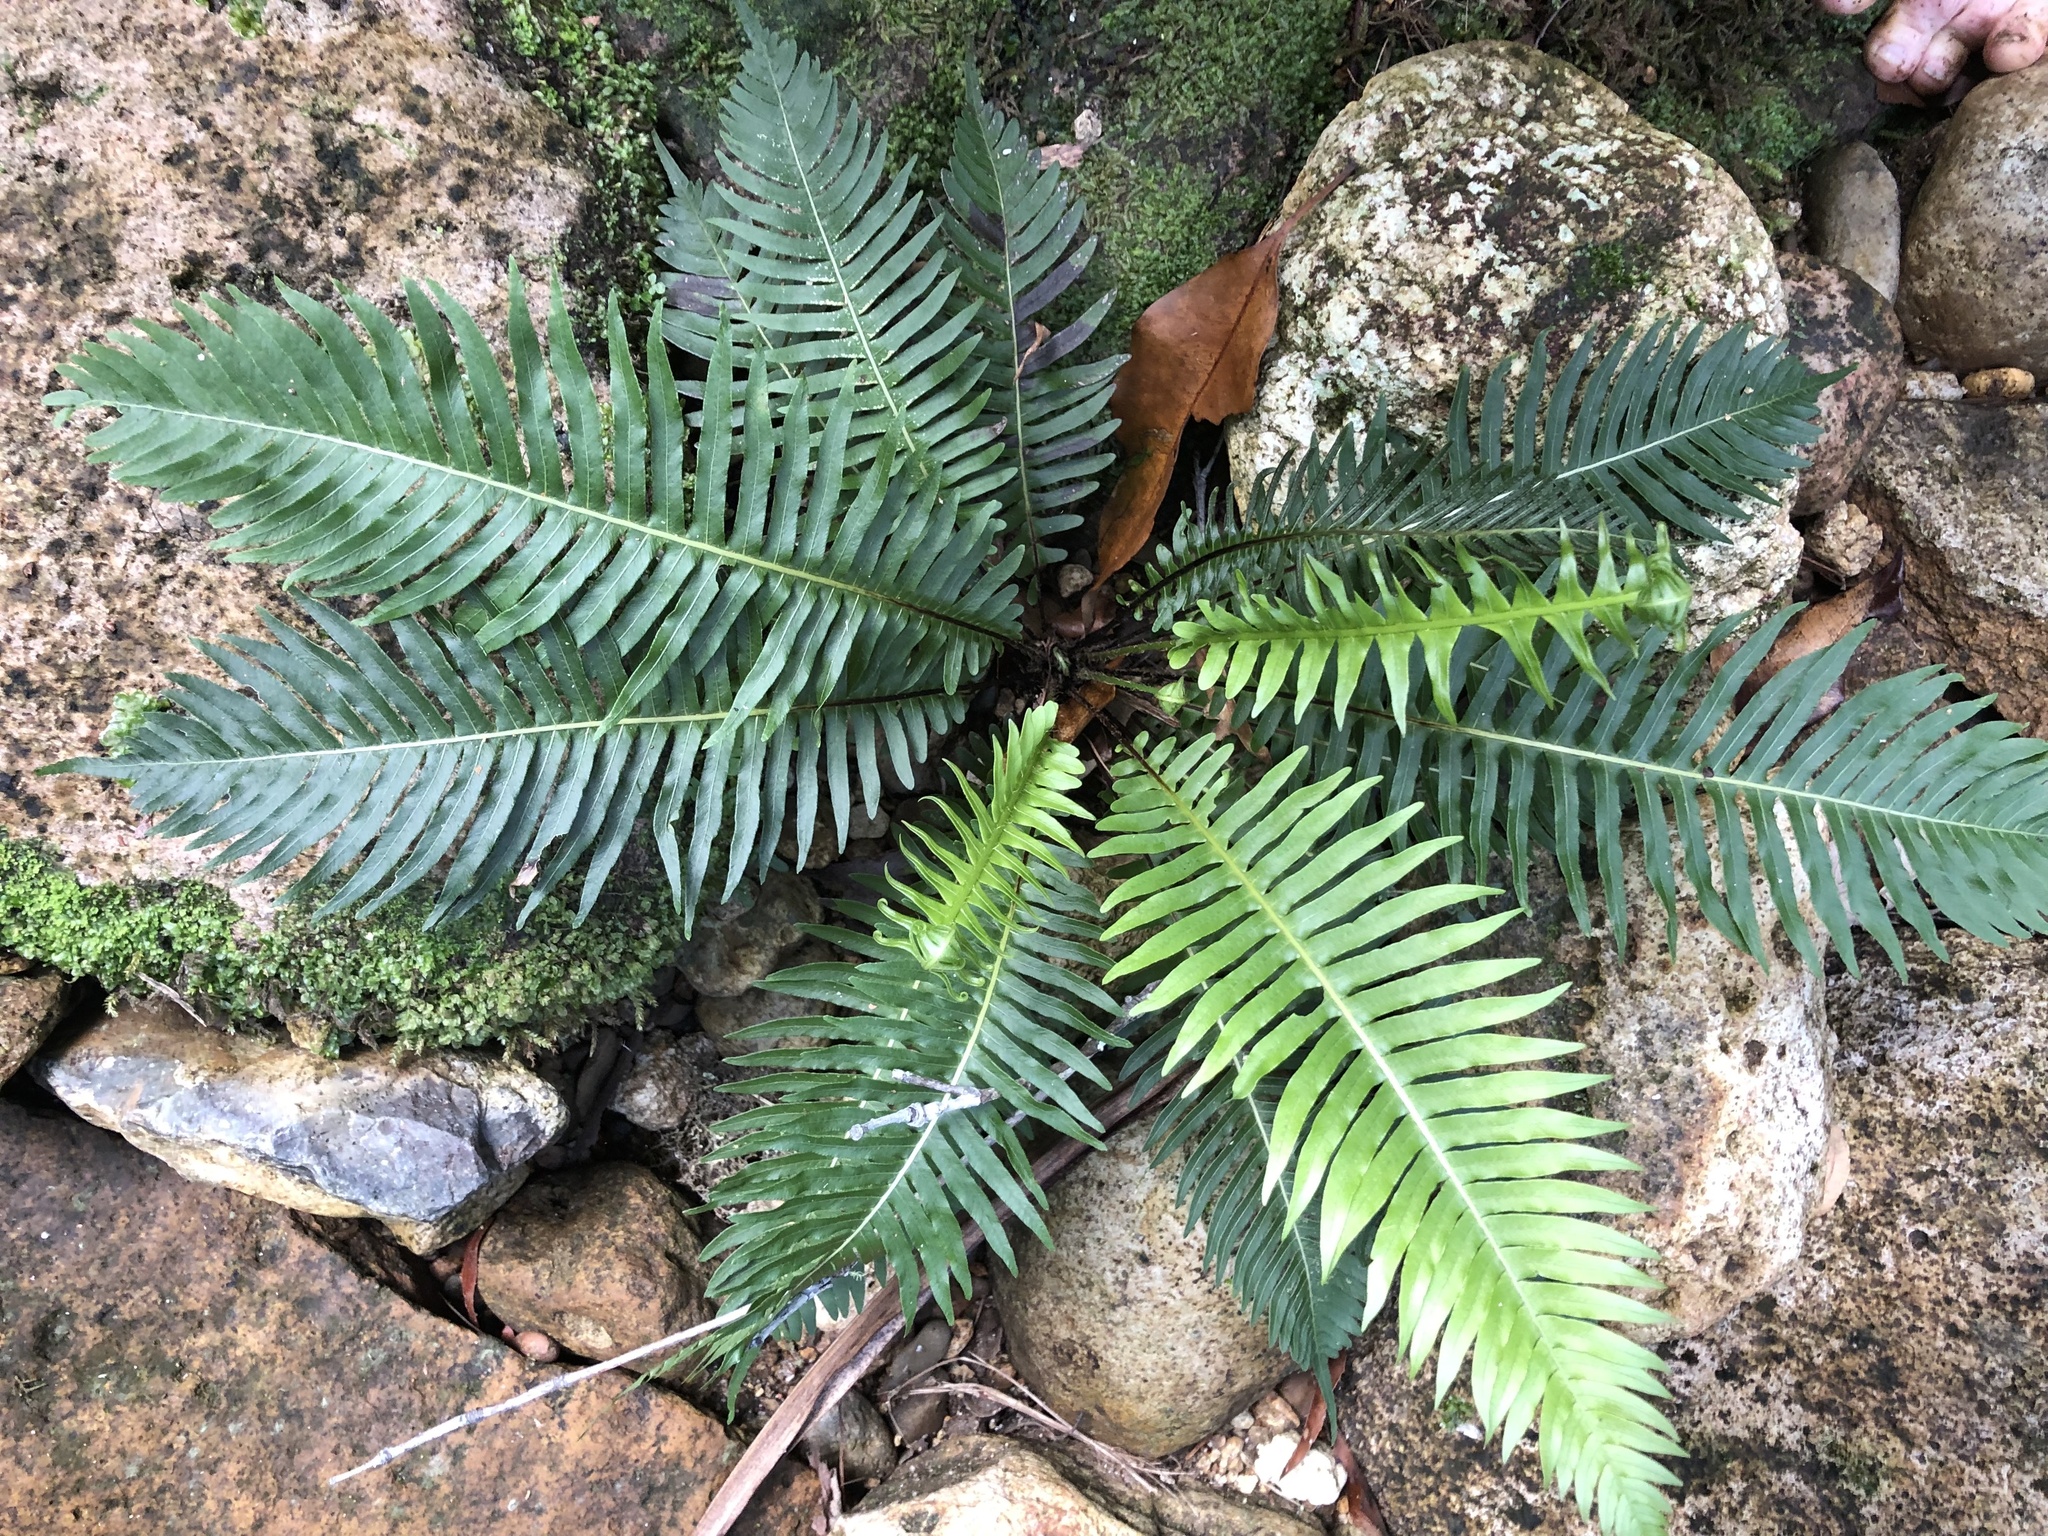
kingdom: Plantae
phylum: Tracheophyta
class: Polypodiopsida
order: Polypodiales
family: Blechnaceae
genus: Lomaria
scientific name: Lomaria nuda
